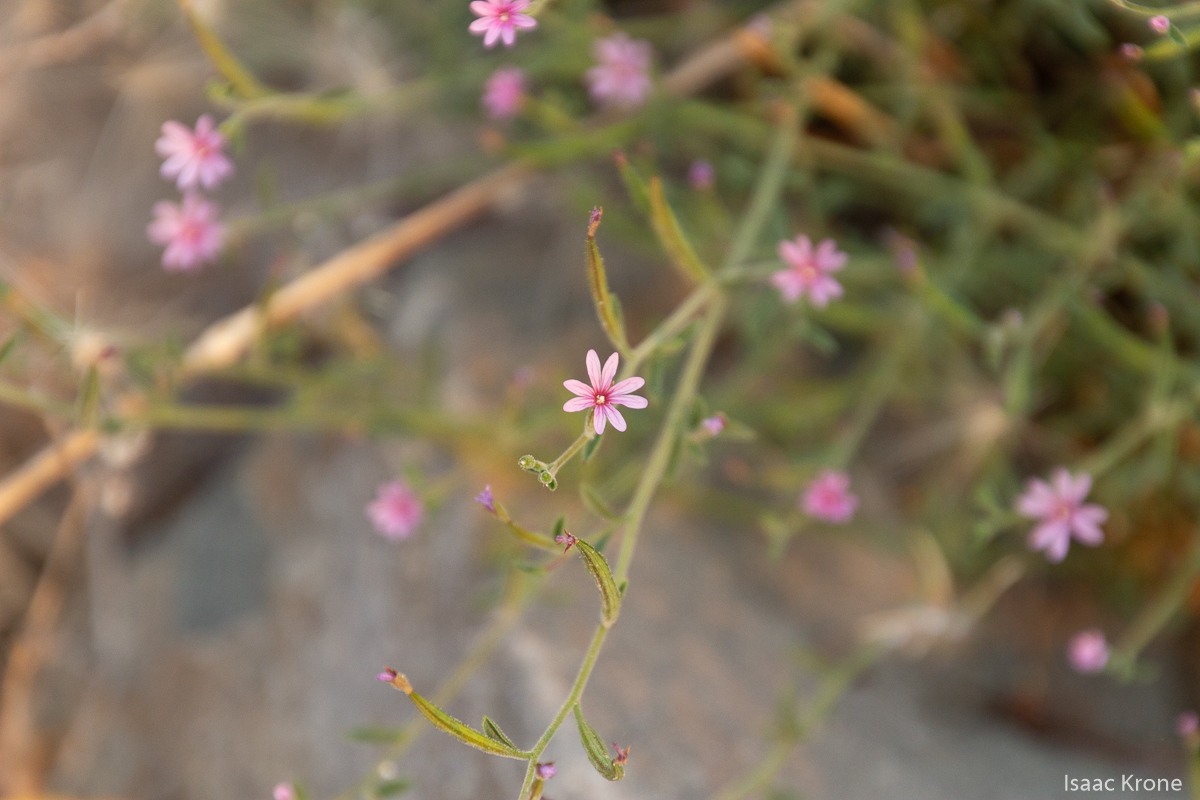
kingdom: Plantae
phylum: Tracheophyta
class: Magnoliopsida
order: Myrtales
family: Onagraceae
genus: Epilobium
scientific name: Epilobium brachycarpum
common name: Annual willowherb
